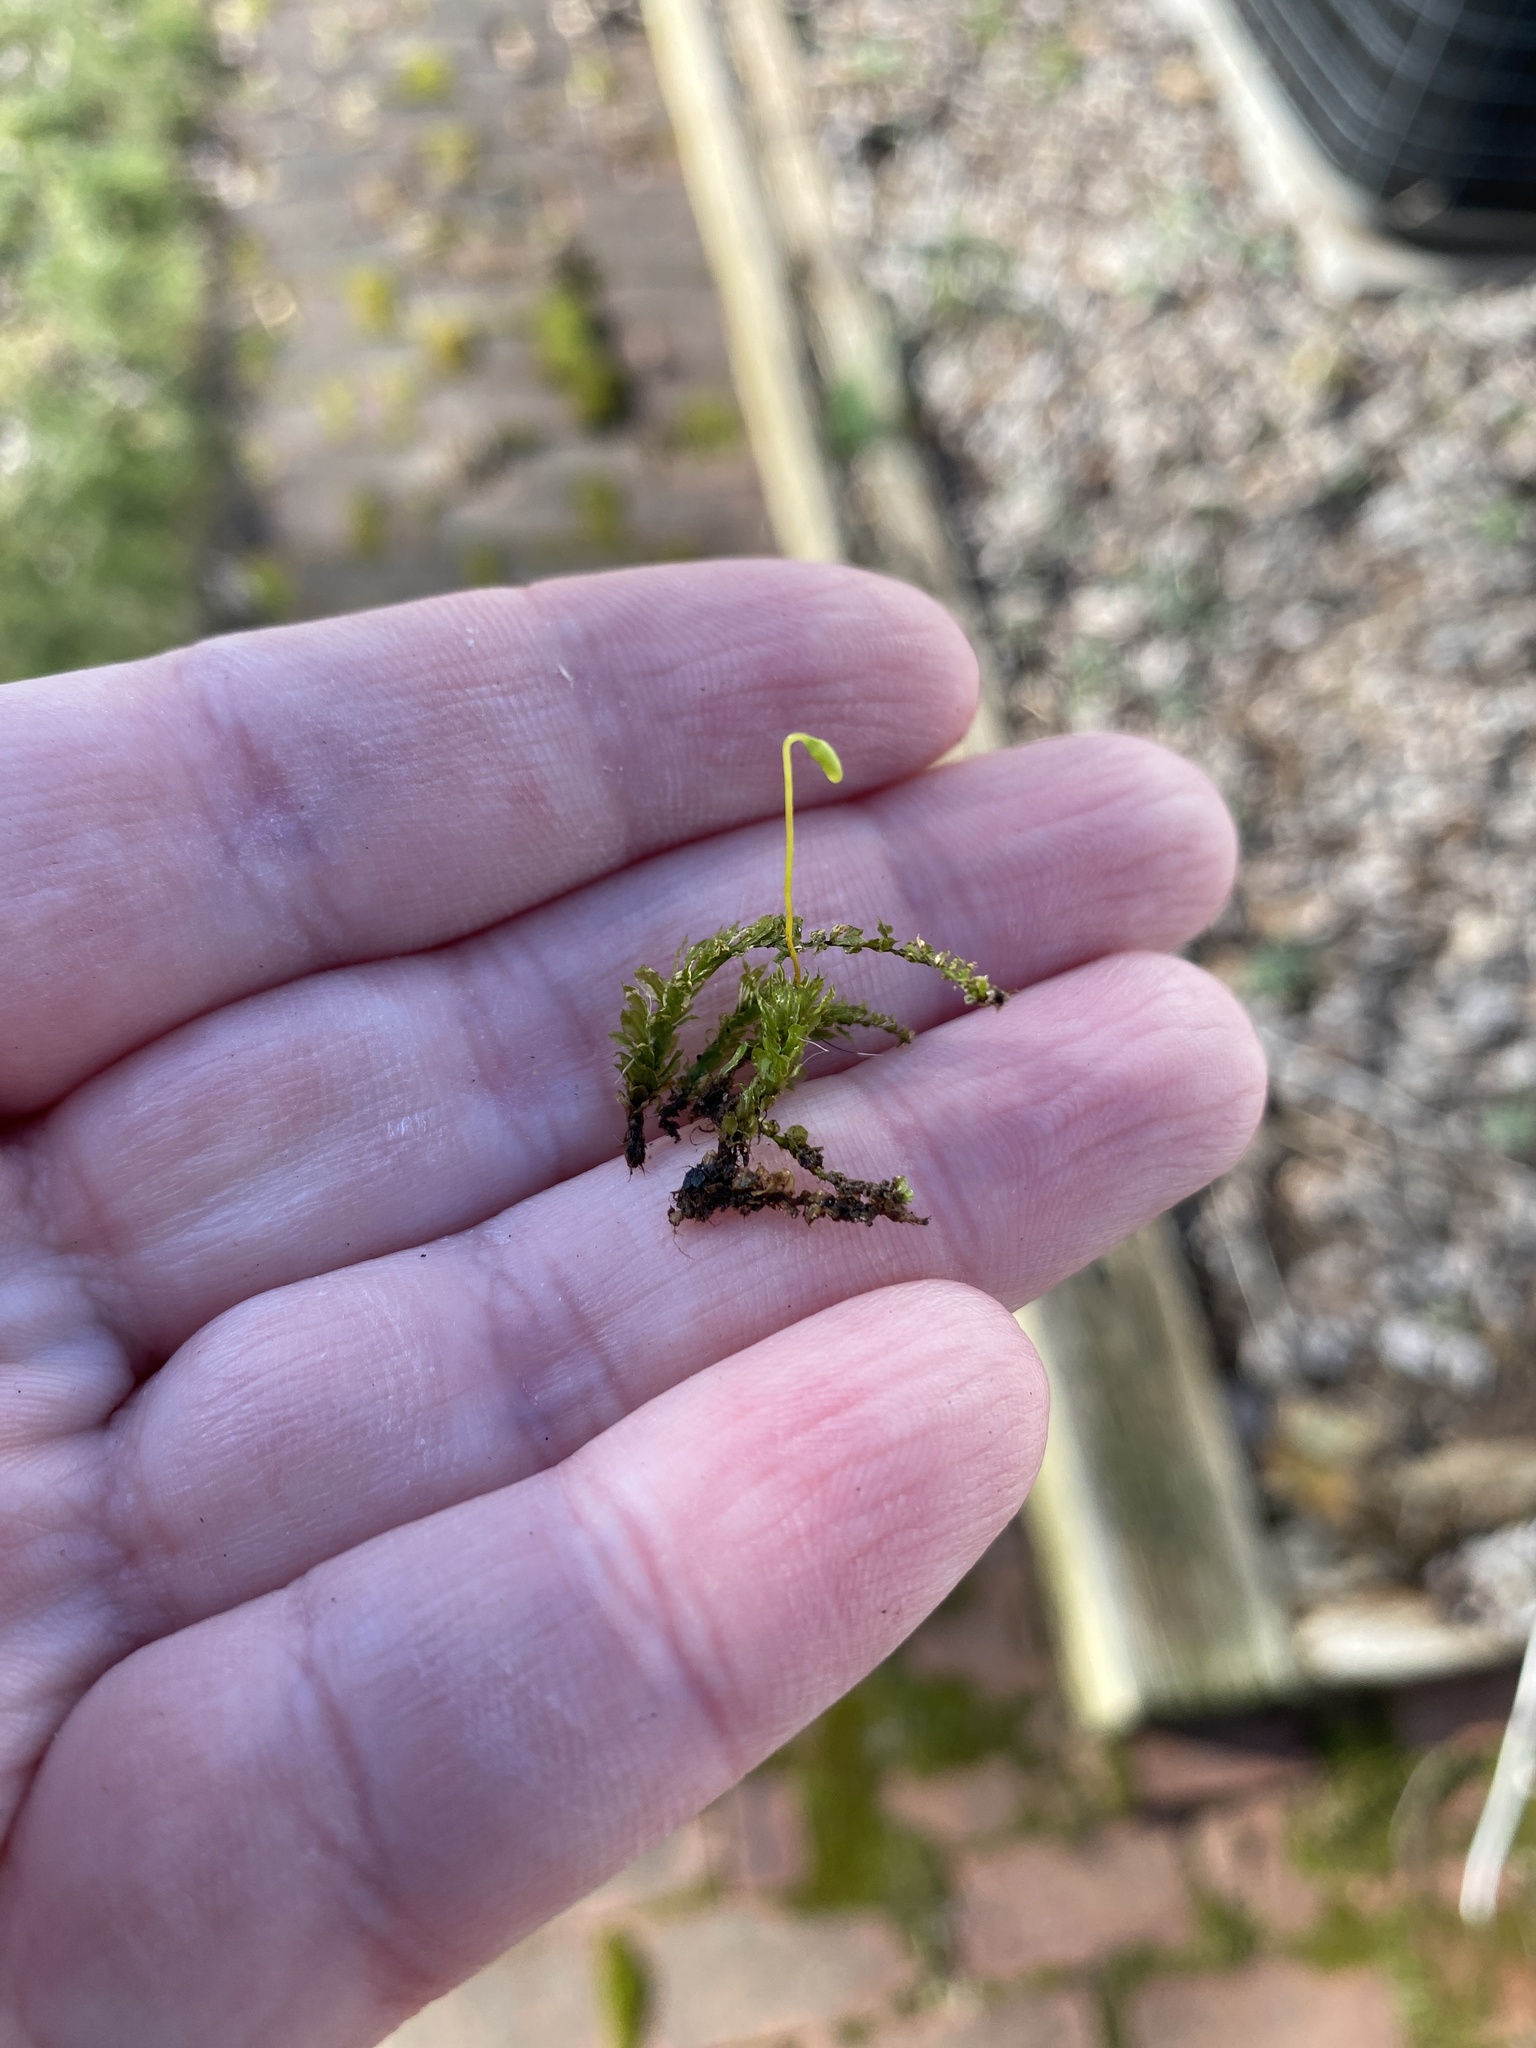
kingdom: Plantae
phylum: Bryophyta
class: Bryopsida
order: Bryales
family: Mniaceae
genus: Plagiomnium
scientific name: Plagiomnium cuspidatum
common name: Woodsy leafy moss
